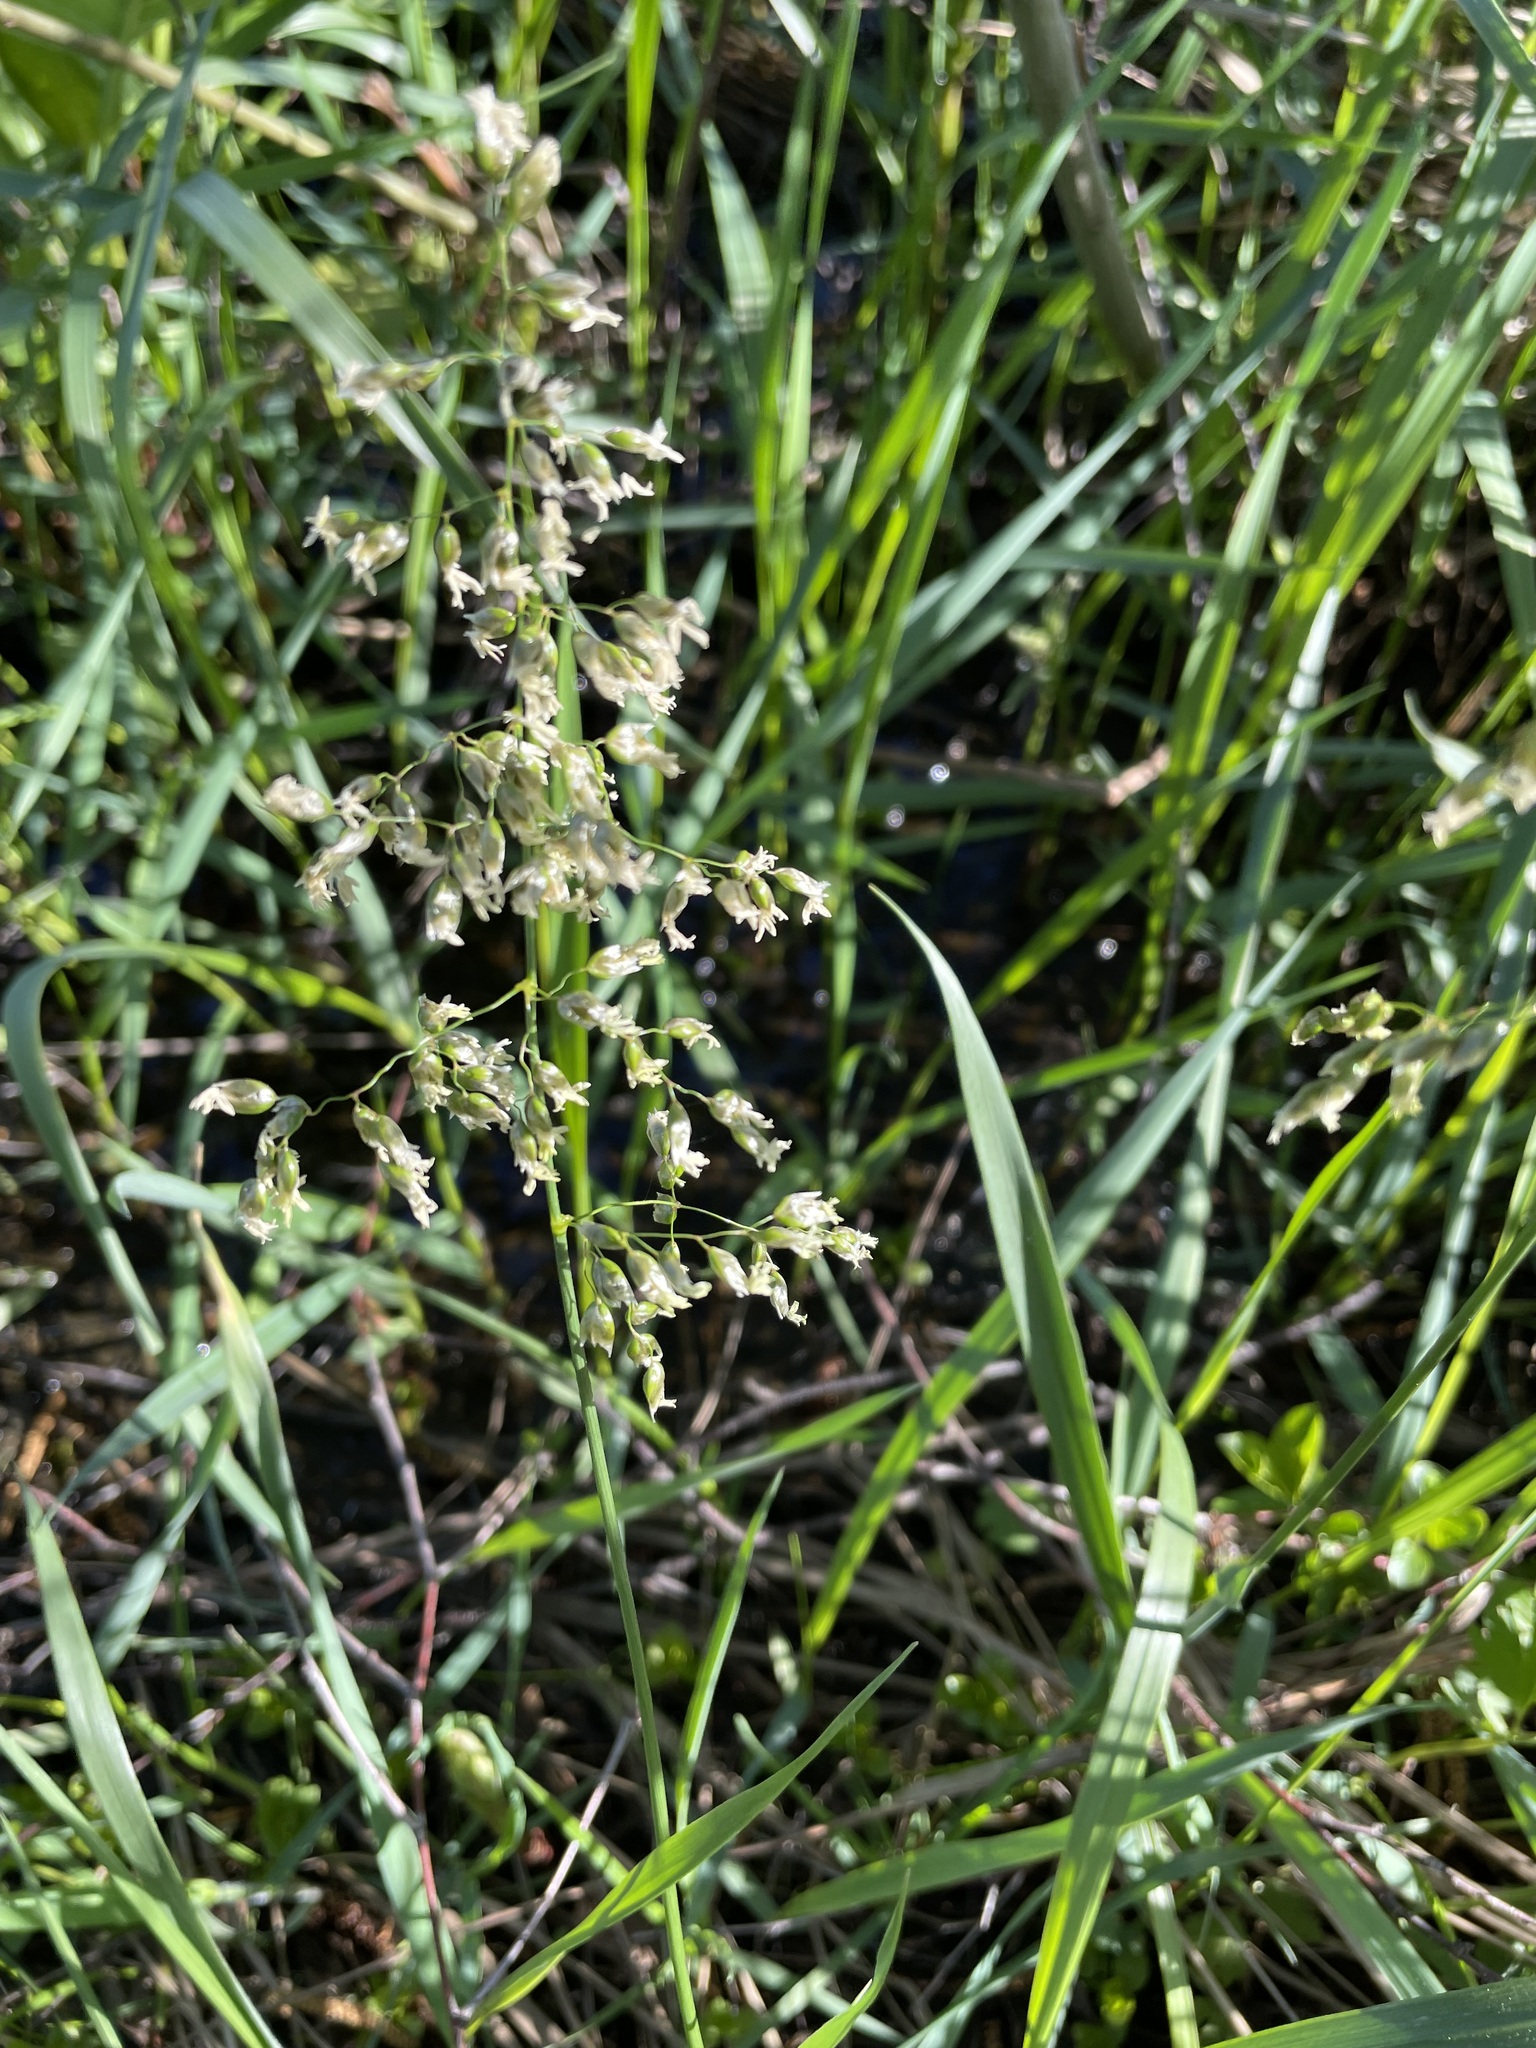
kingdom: Plantae
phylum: Tracheophyta
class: Liliopsida
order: Poales
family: Poaceae
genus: Anthoxanthum
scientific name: Anthoxanthum nitens
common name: Holy grass
